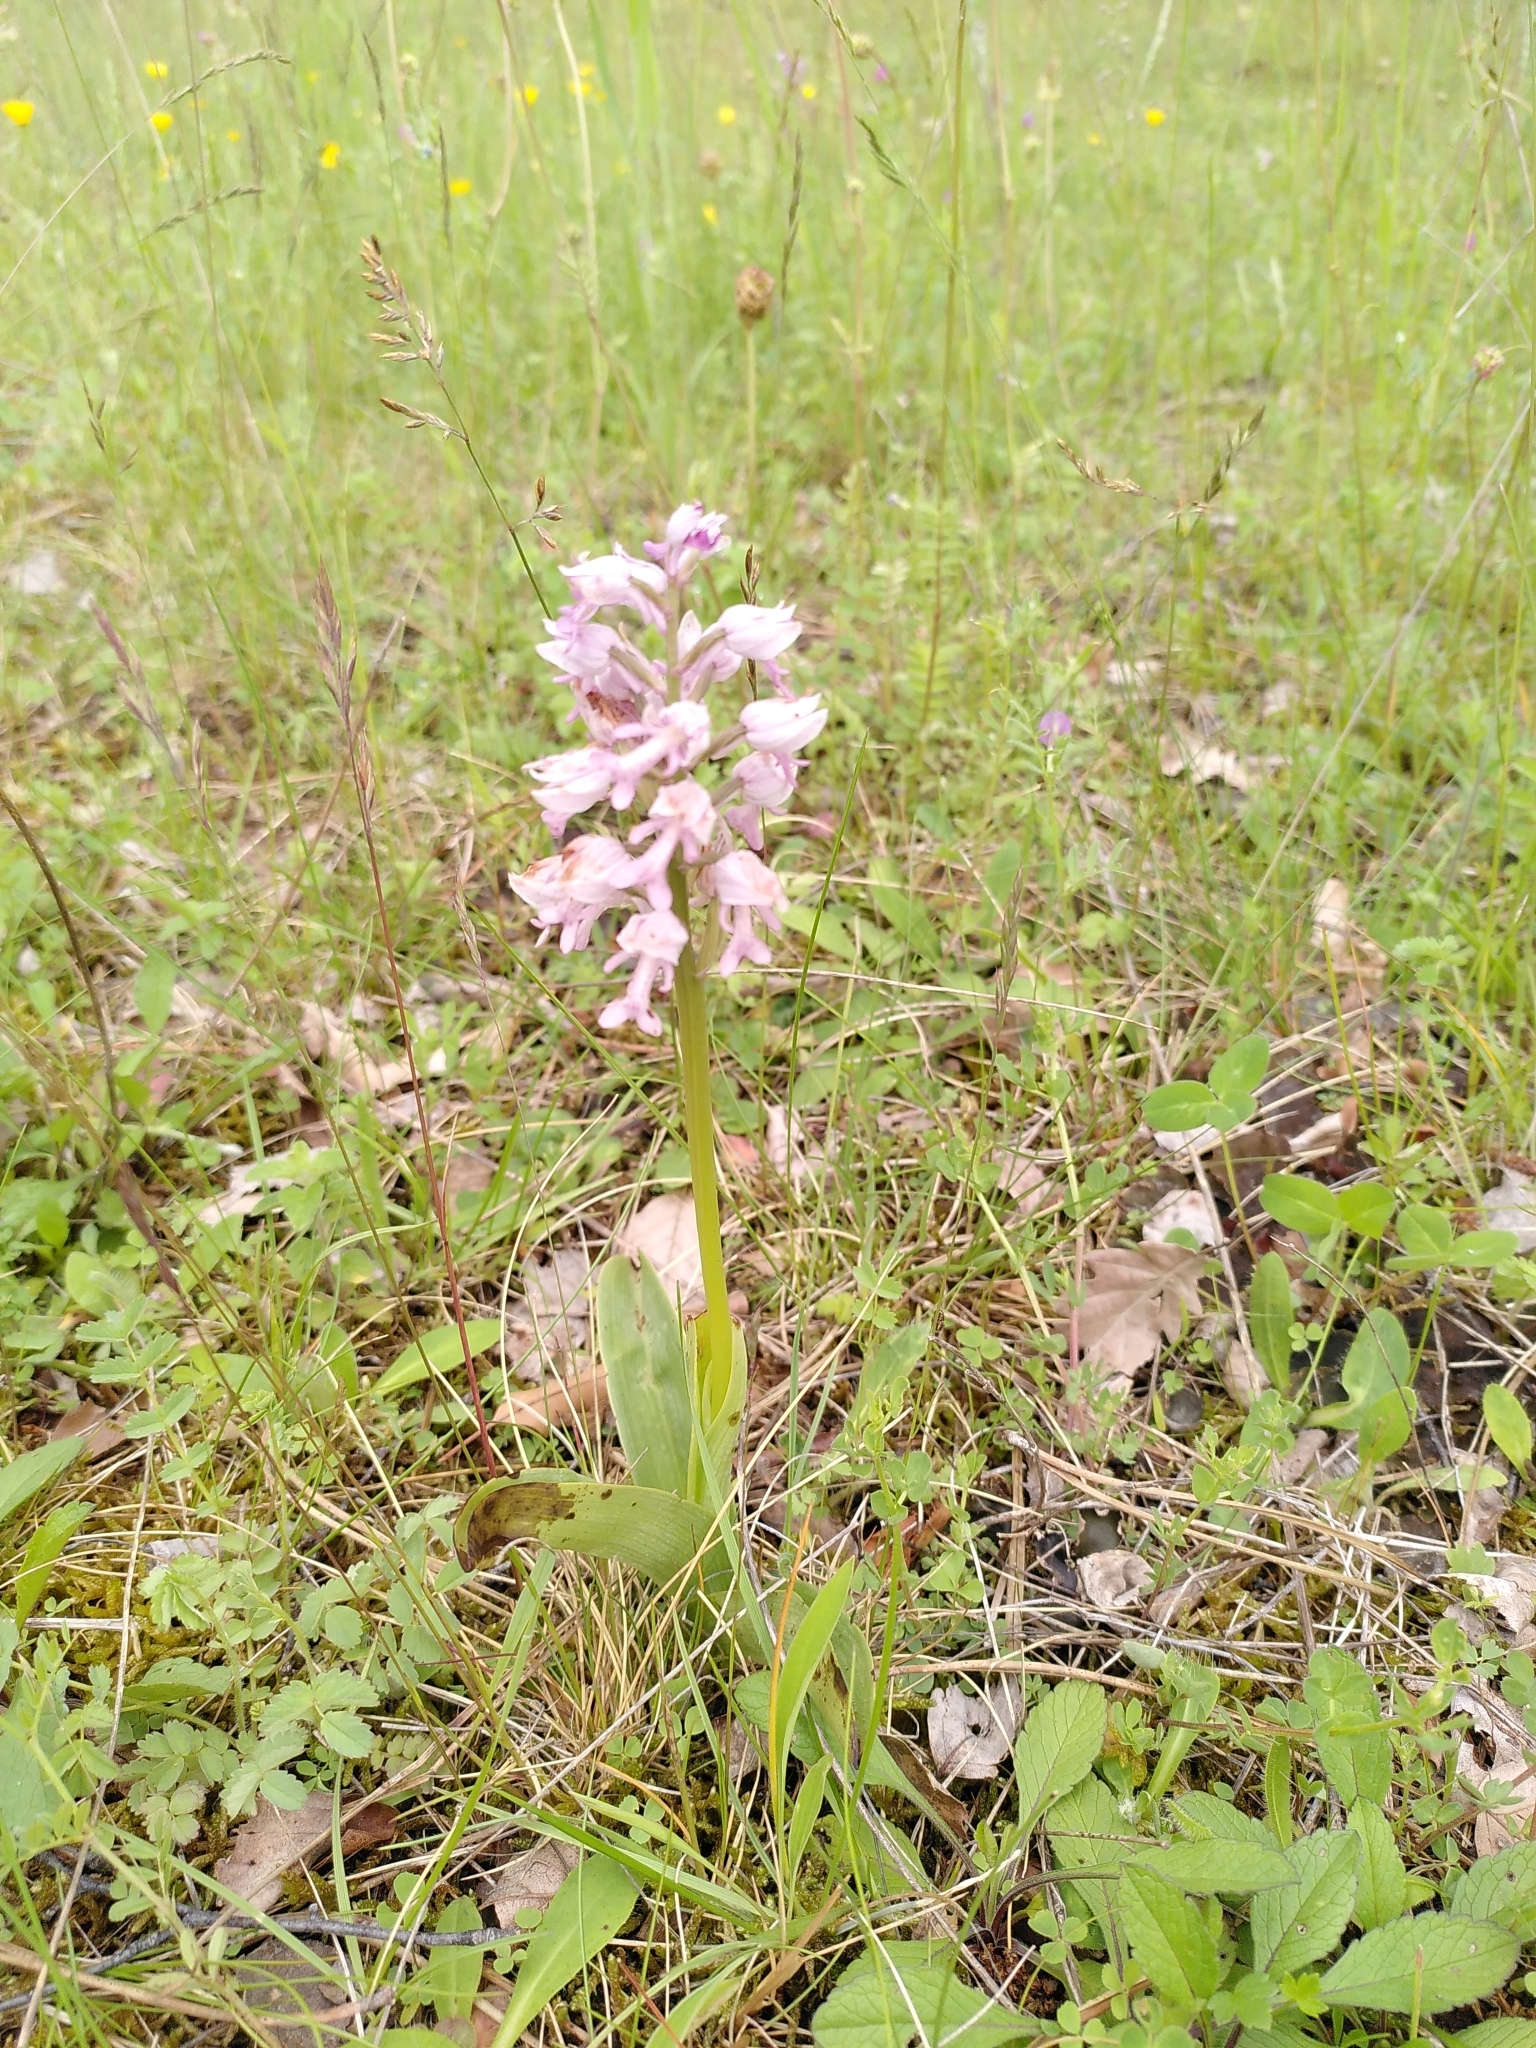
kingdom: Plantae
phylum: Tracheophyta
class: Liliopsida
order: Asparagales
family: Orchidaceae
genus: Orchis
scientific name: Orchis militaris
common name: Military orchid
